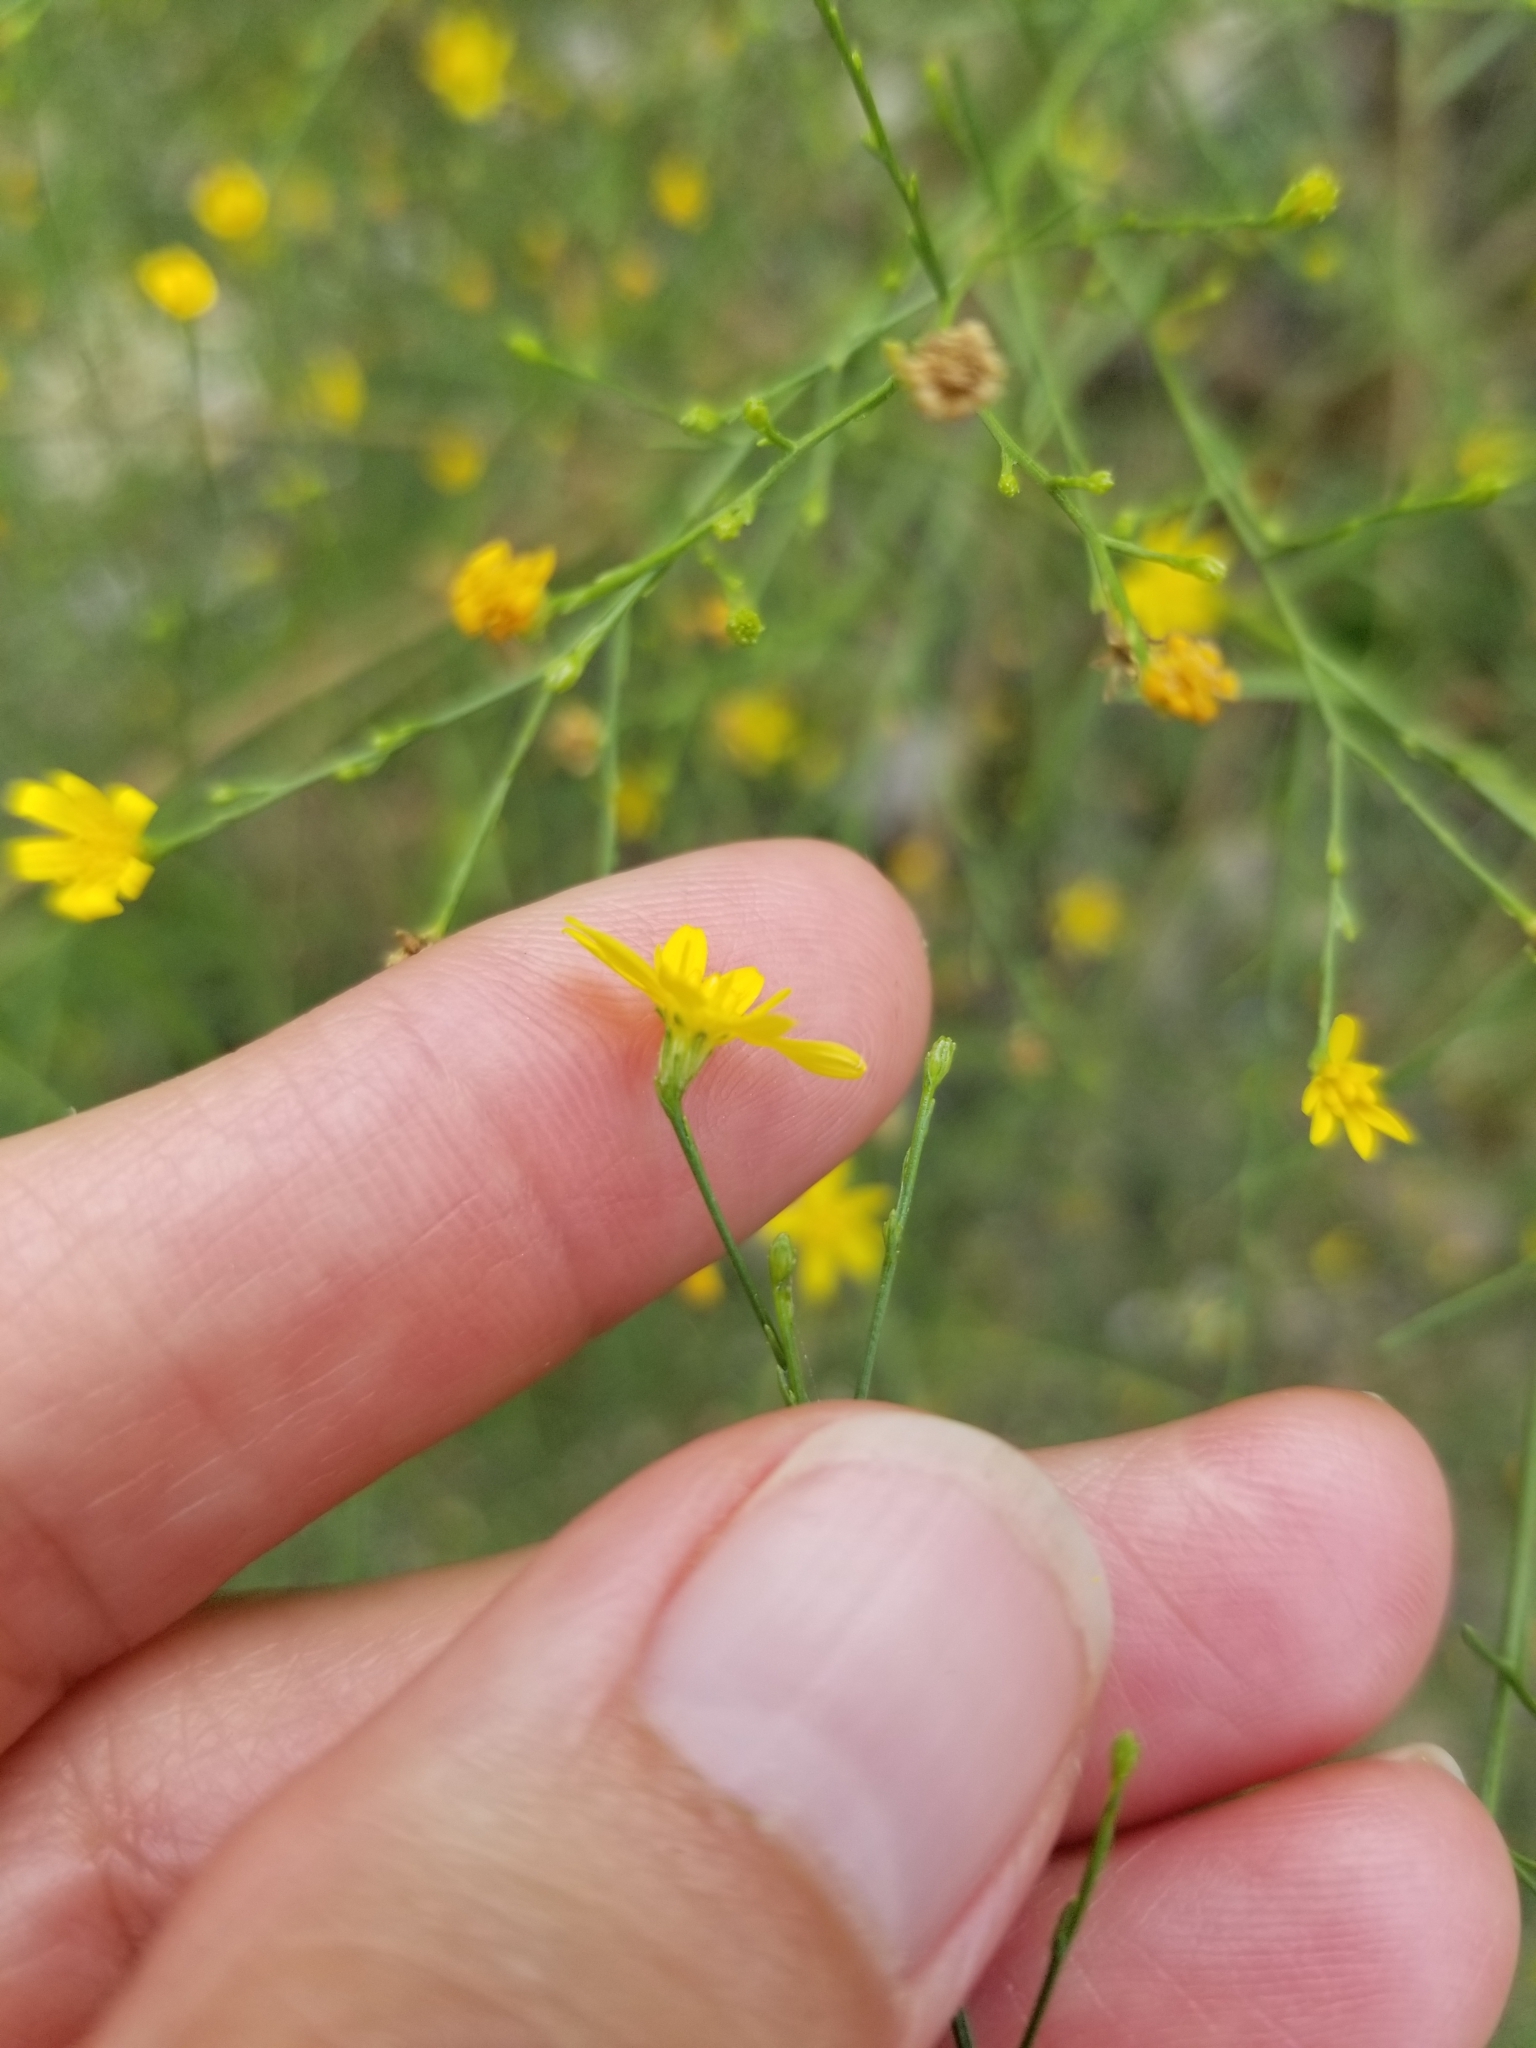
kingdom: Plantae
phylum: Tracheophyta
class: Magnoliopsida
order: Asterales
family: Asteraceae
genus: Gutierrezia
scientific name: Gutierrezia texana
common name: Texas snakeweed
